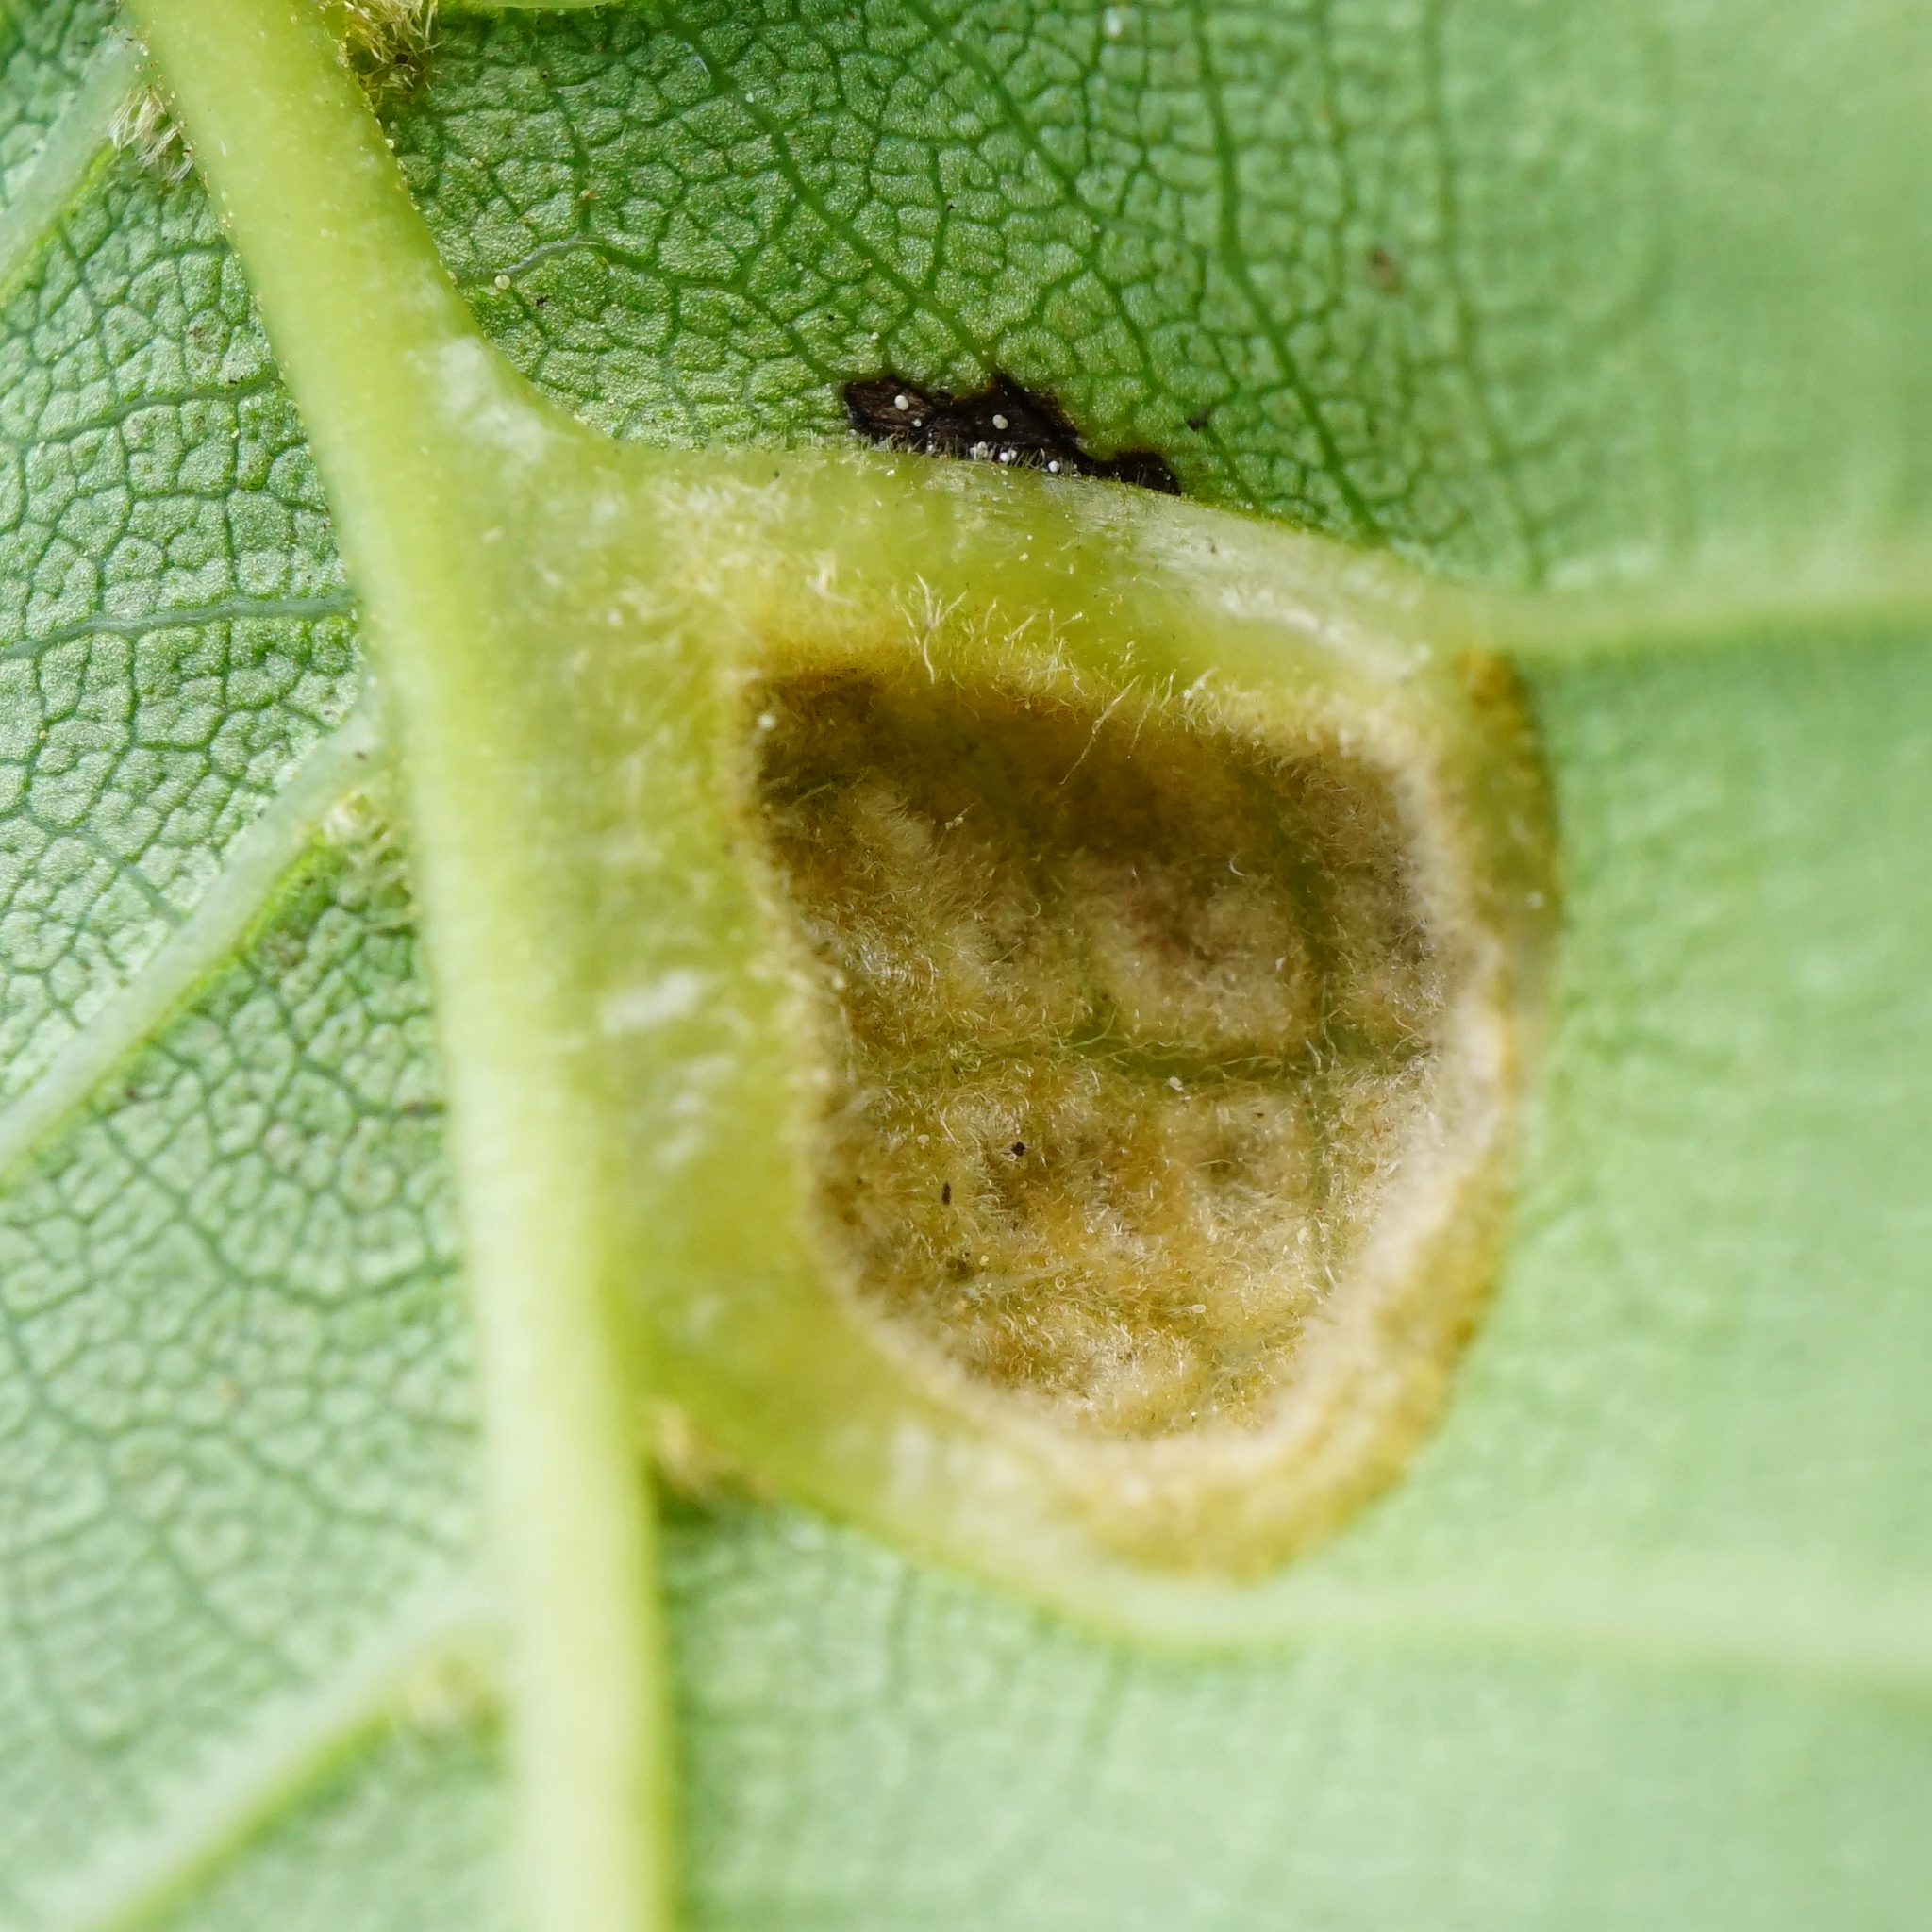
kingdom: Animalia
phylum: Arthropoda
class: Arachnida
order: Trombidiformes
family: Eriophyidae
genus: Aceria
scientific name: Aceria erinea
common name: Persian walnut erineum mite
